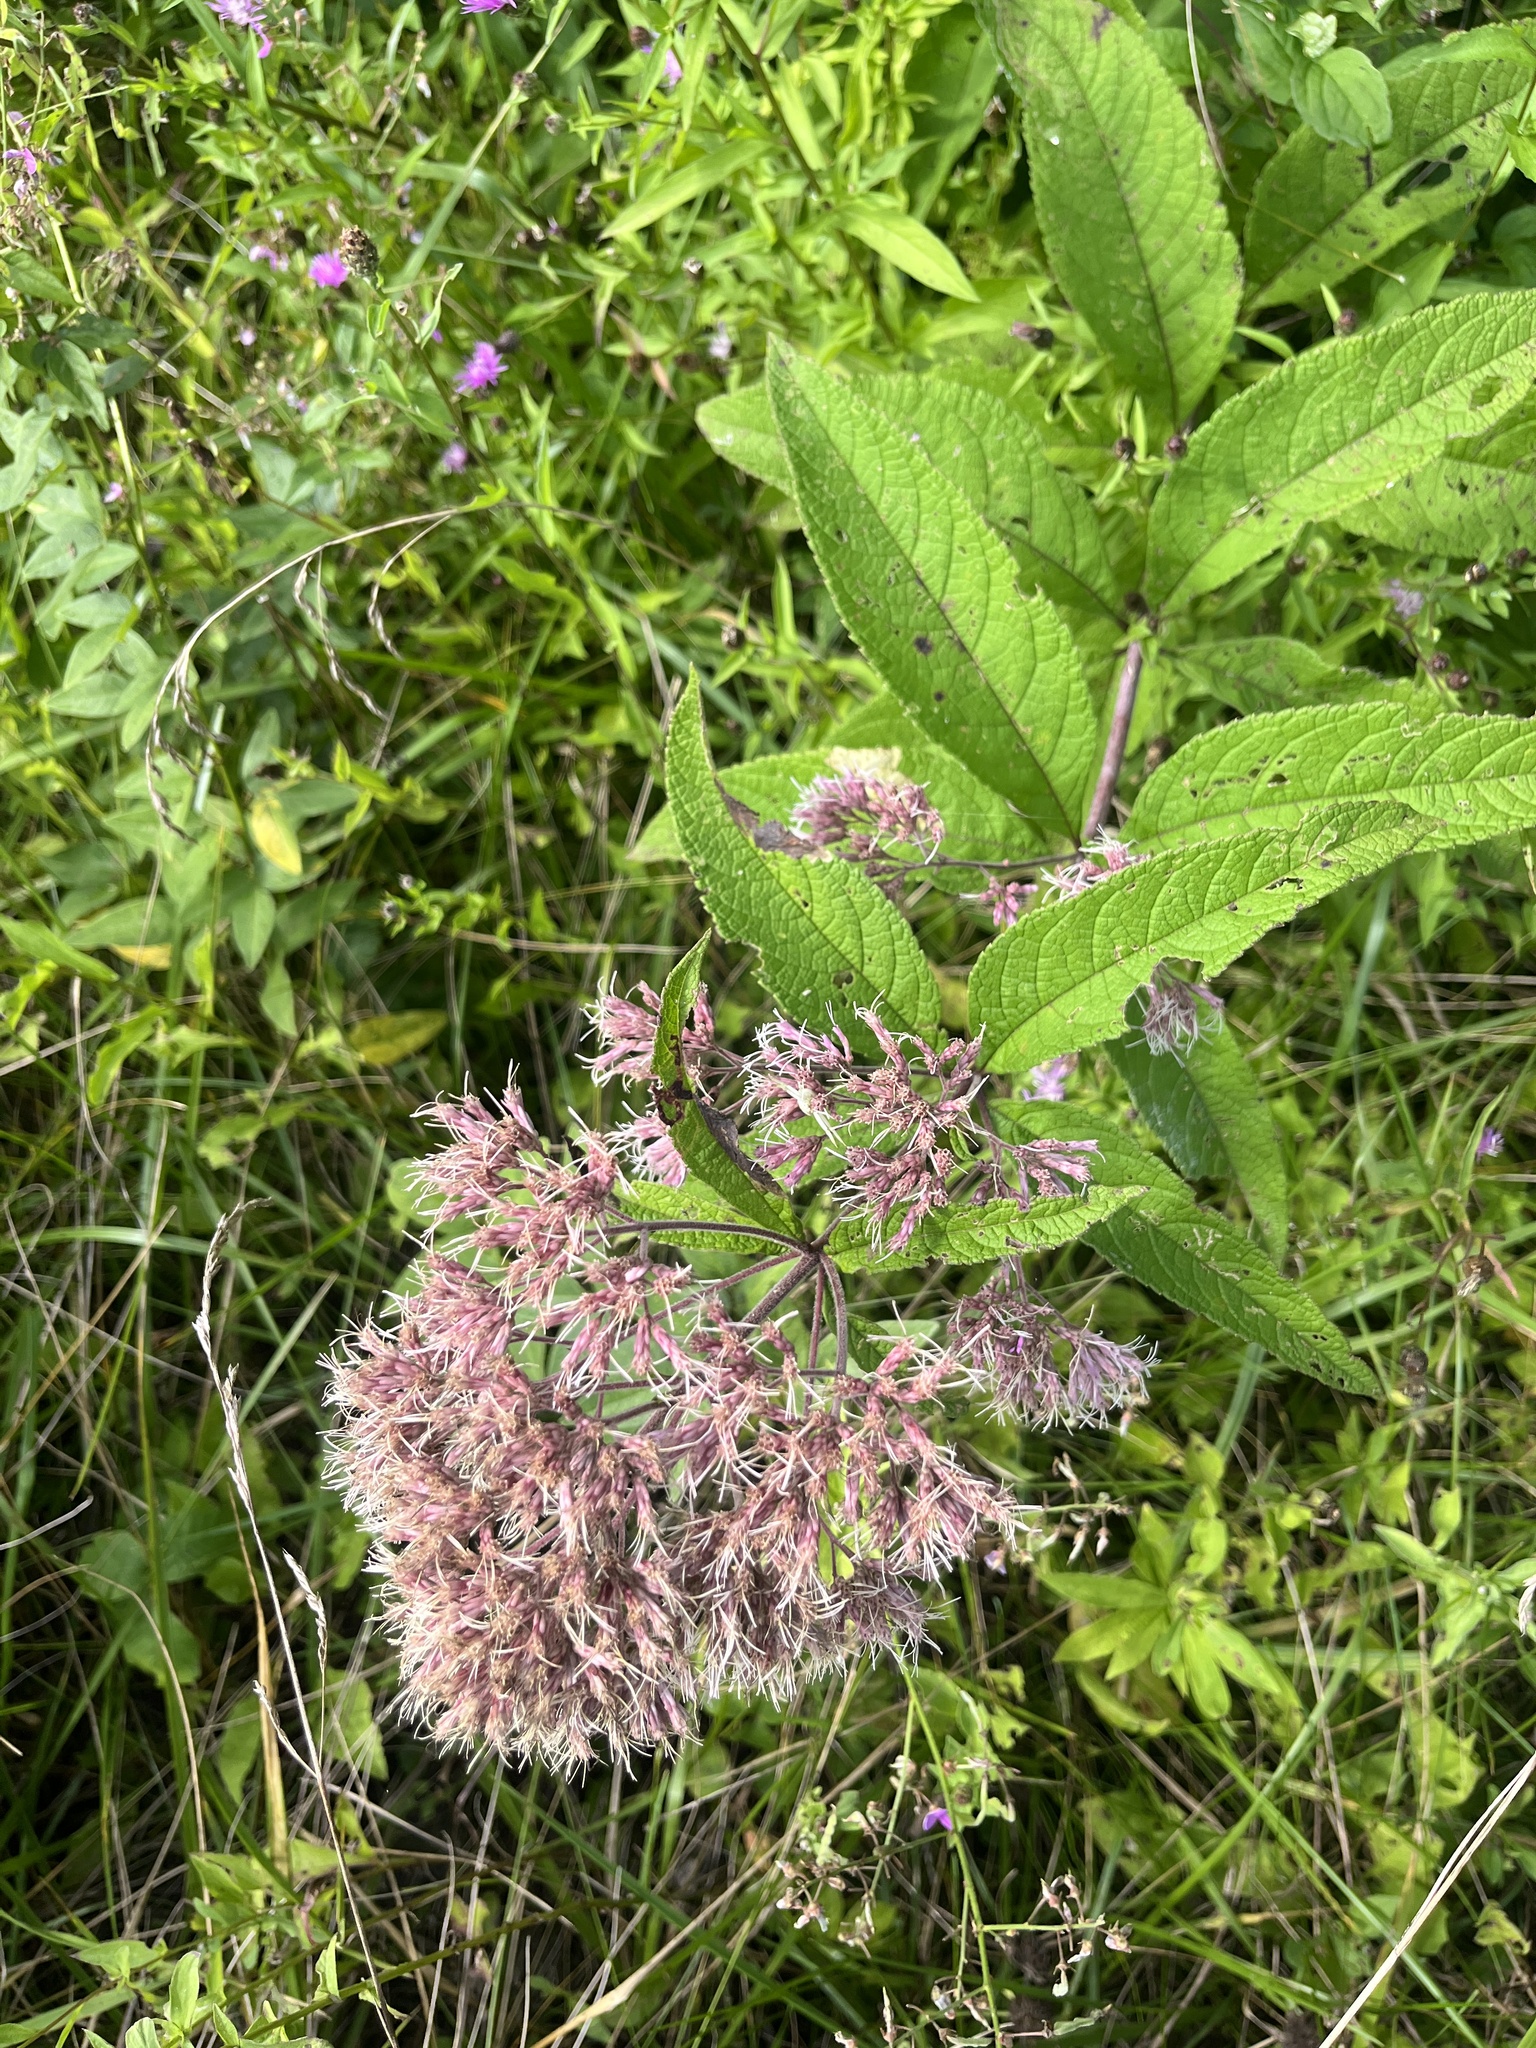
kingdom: Plantae
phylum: Tracheophyta
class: Magnoliopsida
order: Asterales
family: Asteraceae
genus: Eutrochium
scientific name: Eutrochium fistulosum
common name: Trumpetweed
